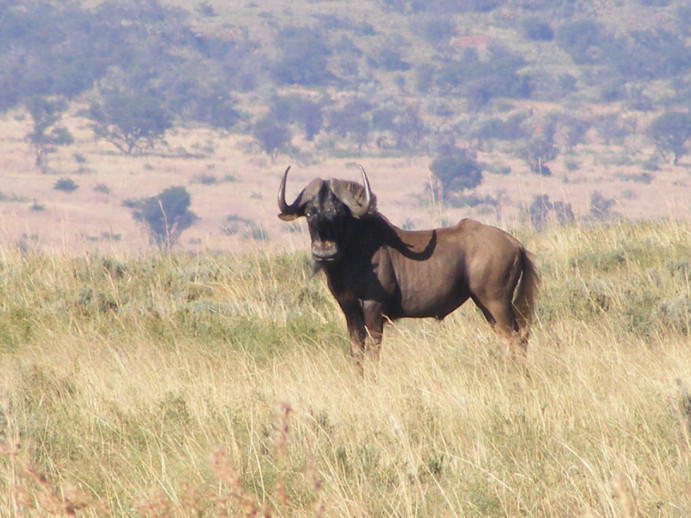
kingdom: Animalia
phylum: Chordata
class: Mammalia
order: Artiodactyla
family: Bovidae
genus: Connochaetes
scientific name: Connochaetes gnou
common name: Black wildebeest
